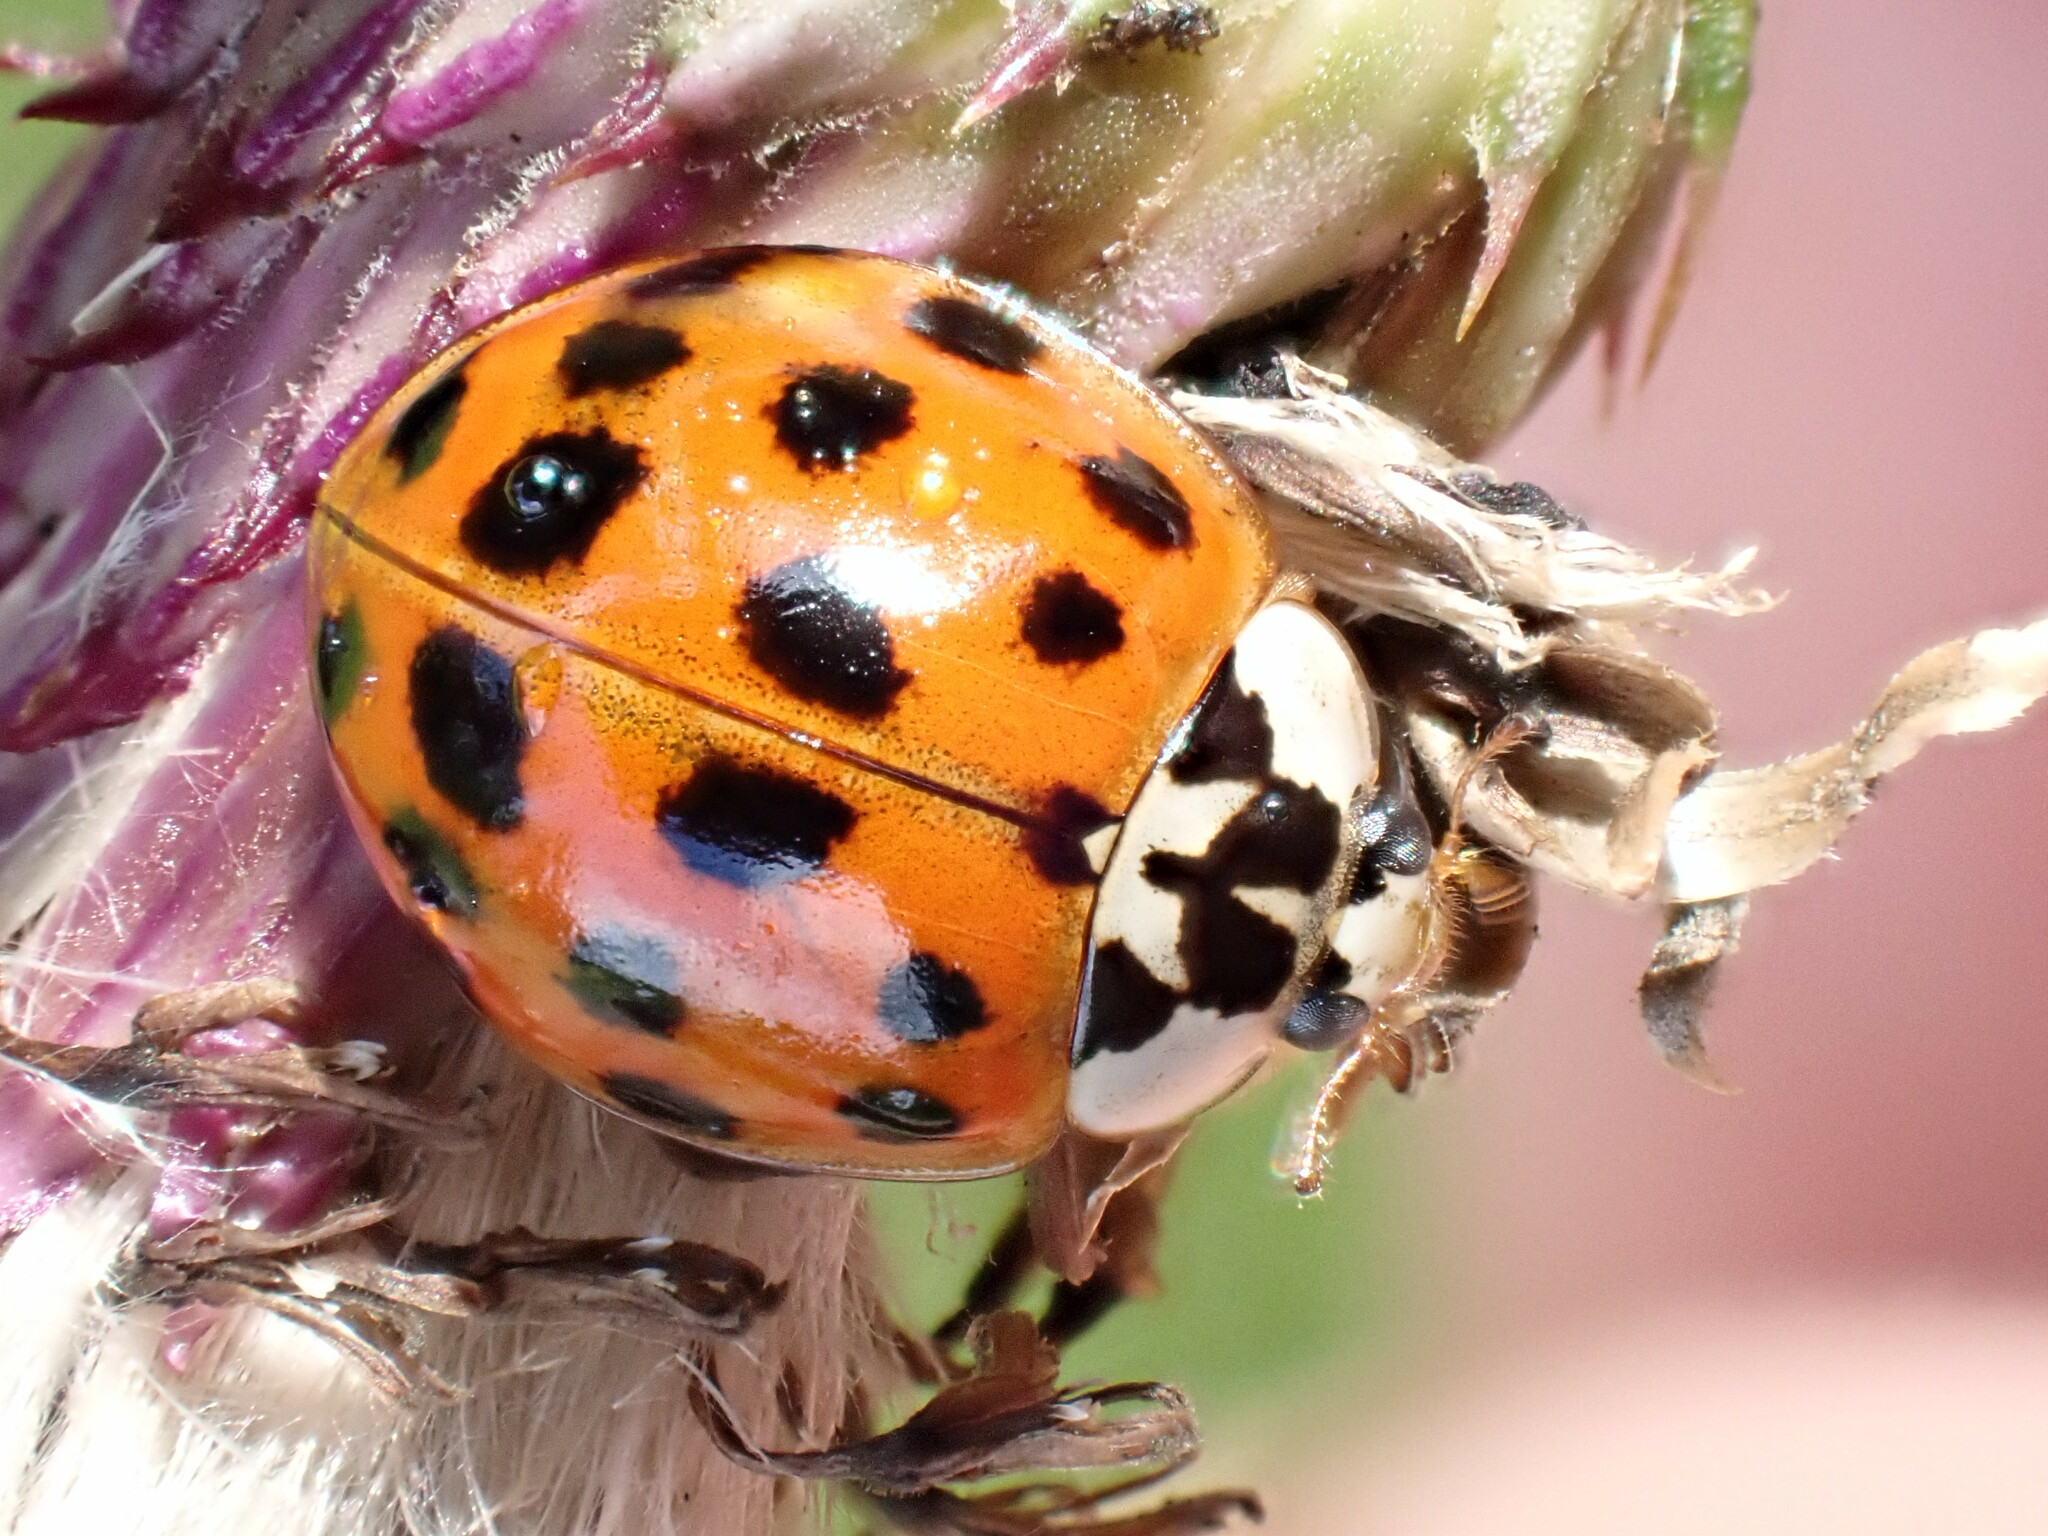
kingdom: Animalia
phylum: Arthropoda
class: Insecta
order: Coleoptera
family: Coccinellidae
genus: Harmonia
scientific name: Harmonia axyridis
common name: Harlequin ladybird
